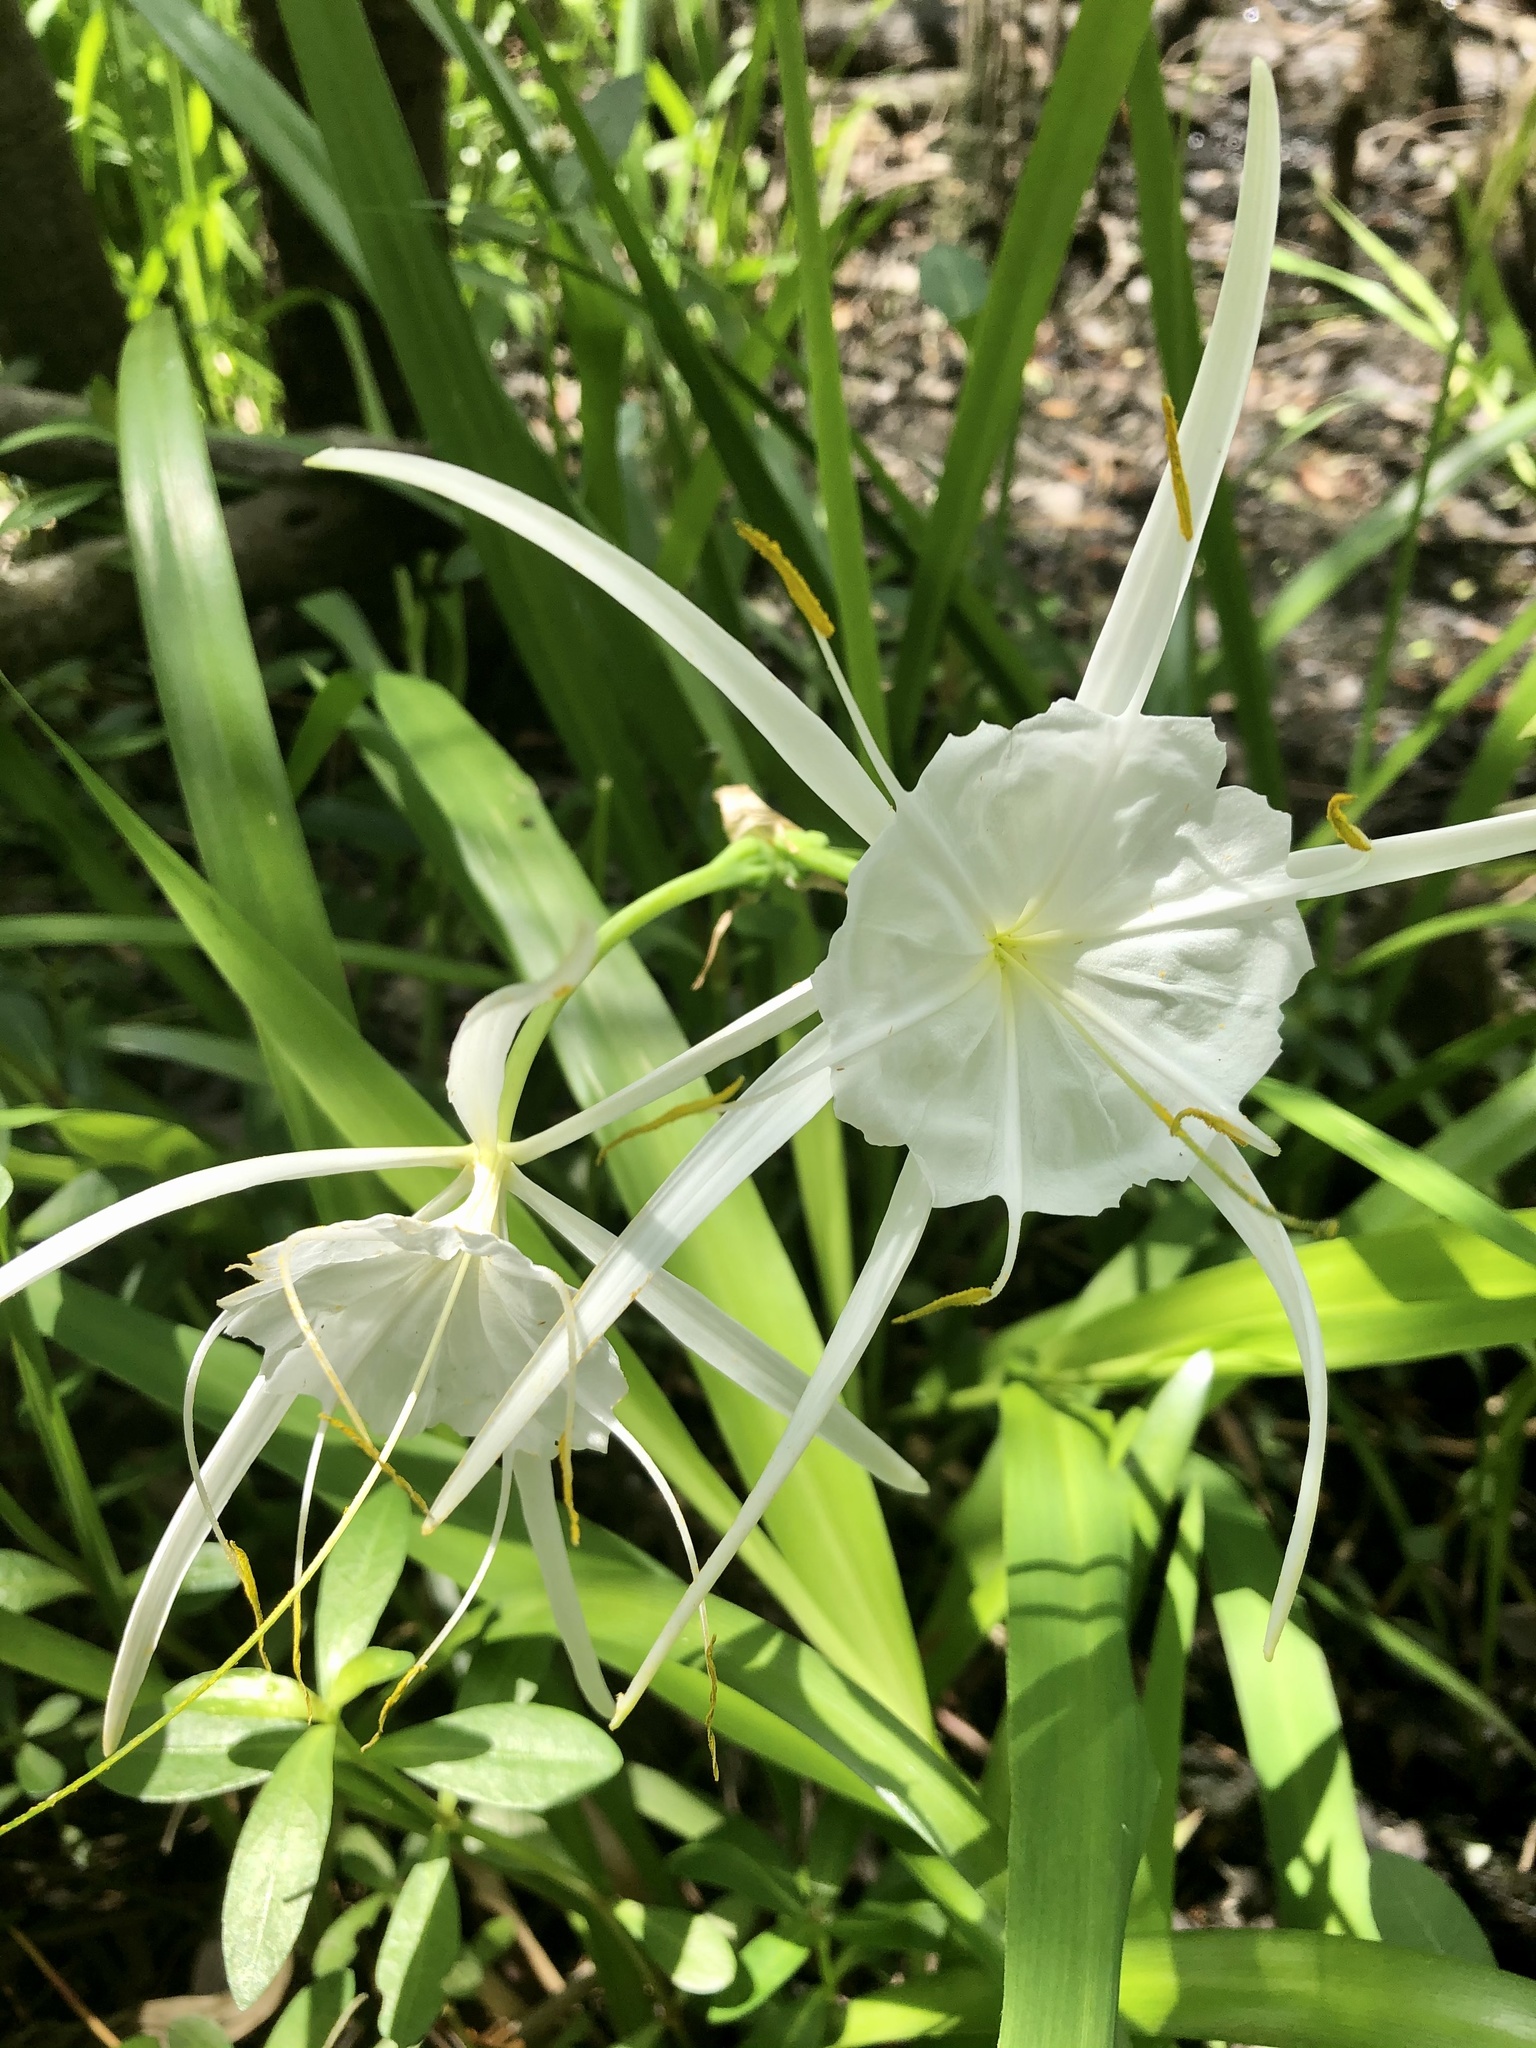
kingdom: Plantae
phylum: Tracheophyta
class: Liliopsida
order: Asparagales
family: Amaryllidaceae
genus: Hymenocallis
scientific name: Hymenocallis crassifolia
